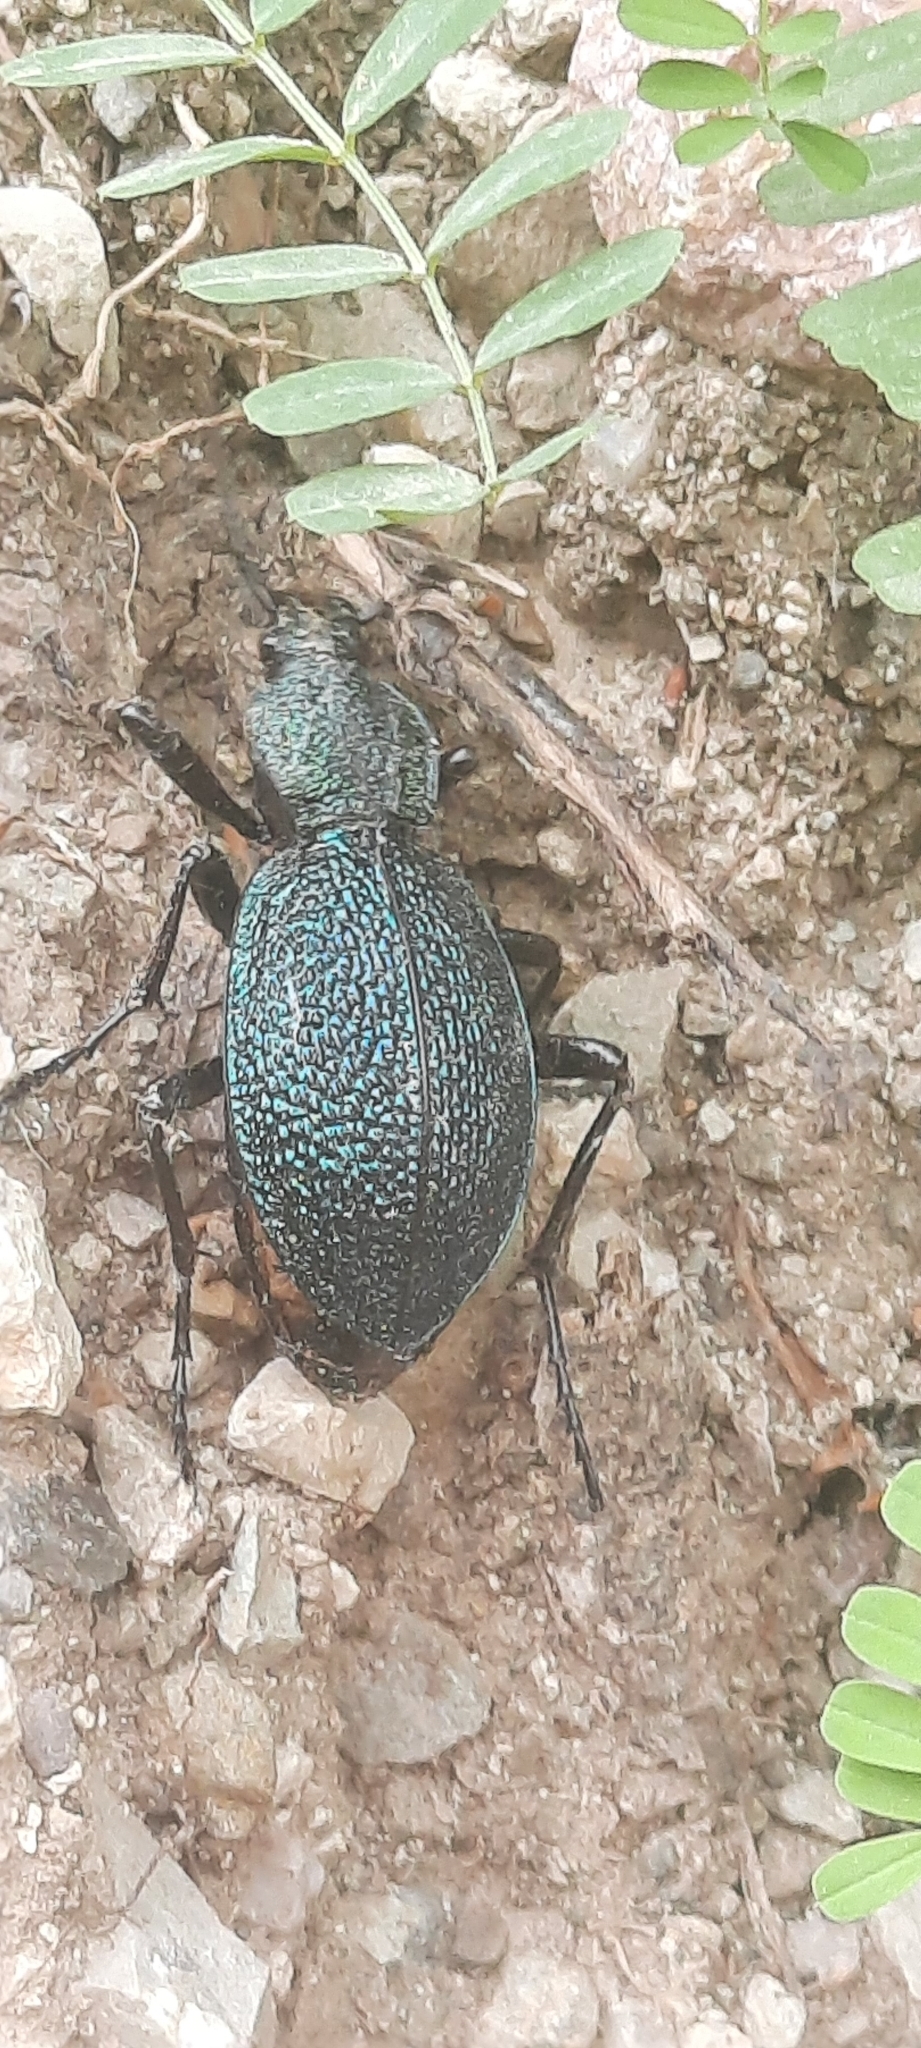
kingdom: Animalia
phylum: Arthropoda
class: Insecta
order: Coleoptera
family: Carabidae
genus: Carabus
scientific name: Carabus scabrosus
